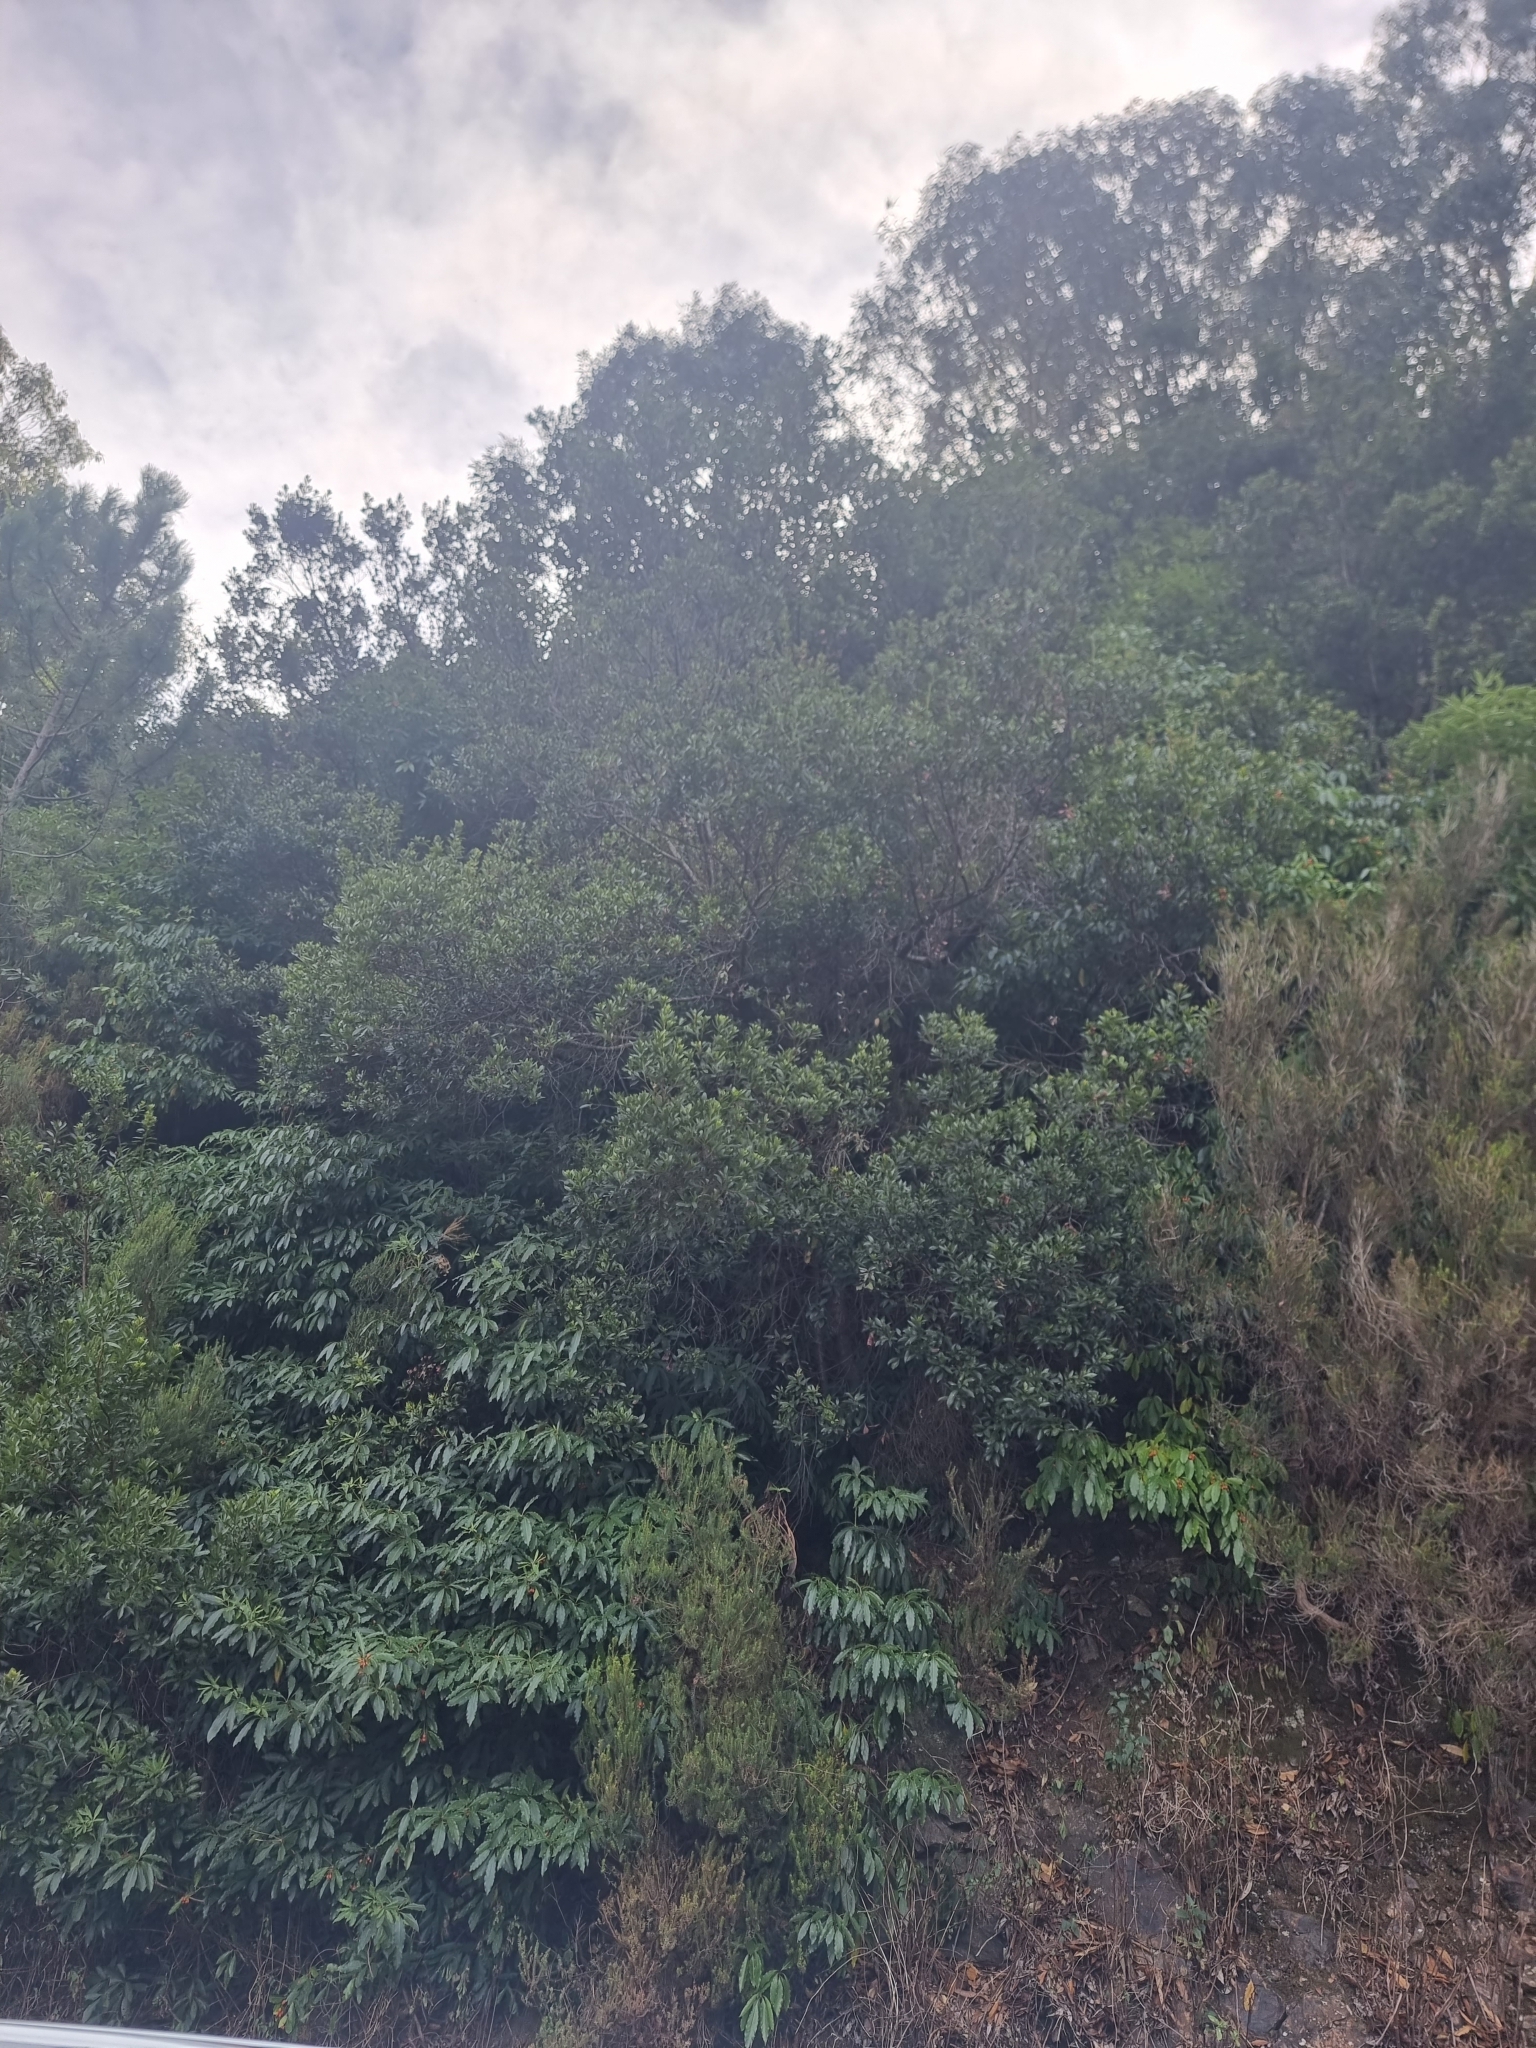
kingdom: Plantae
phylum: Tracheophyta
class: Magnoliopsida
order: Fagales
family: Myricaceae
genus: Morella
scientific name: Morella faya
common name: Firetree
